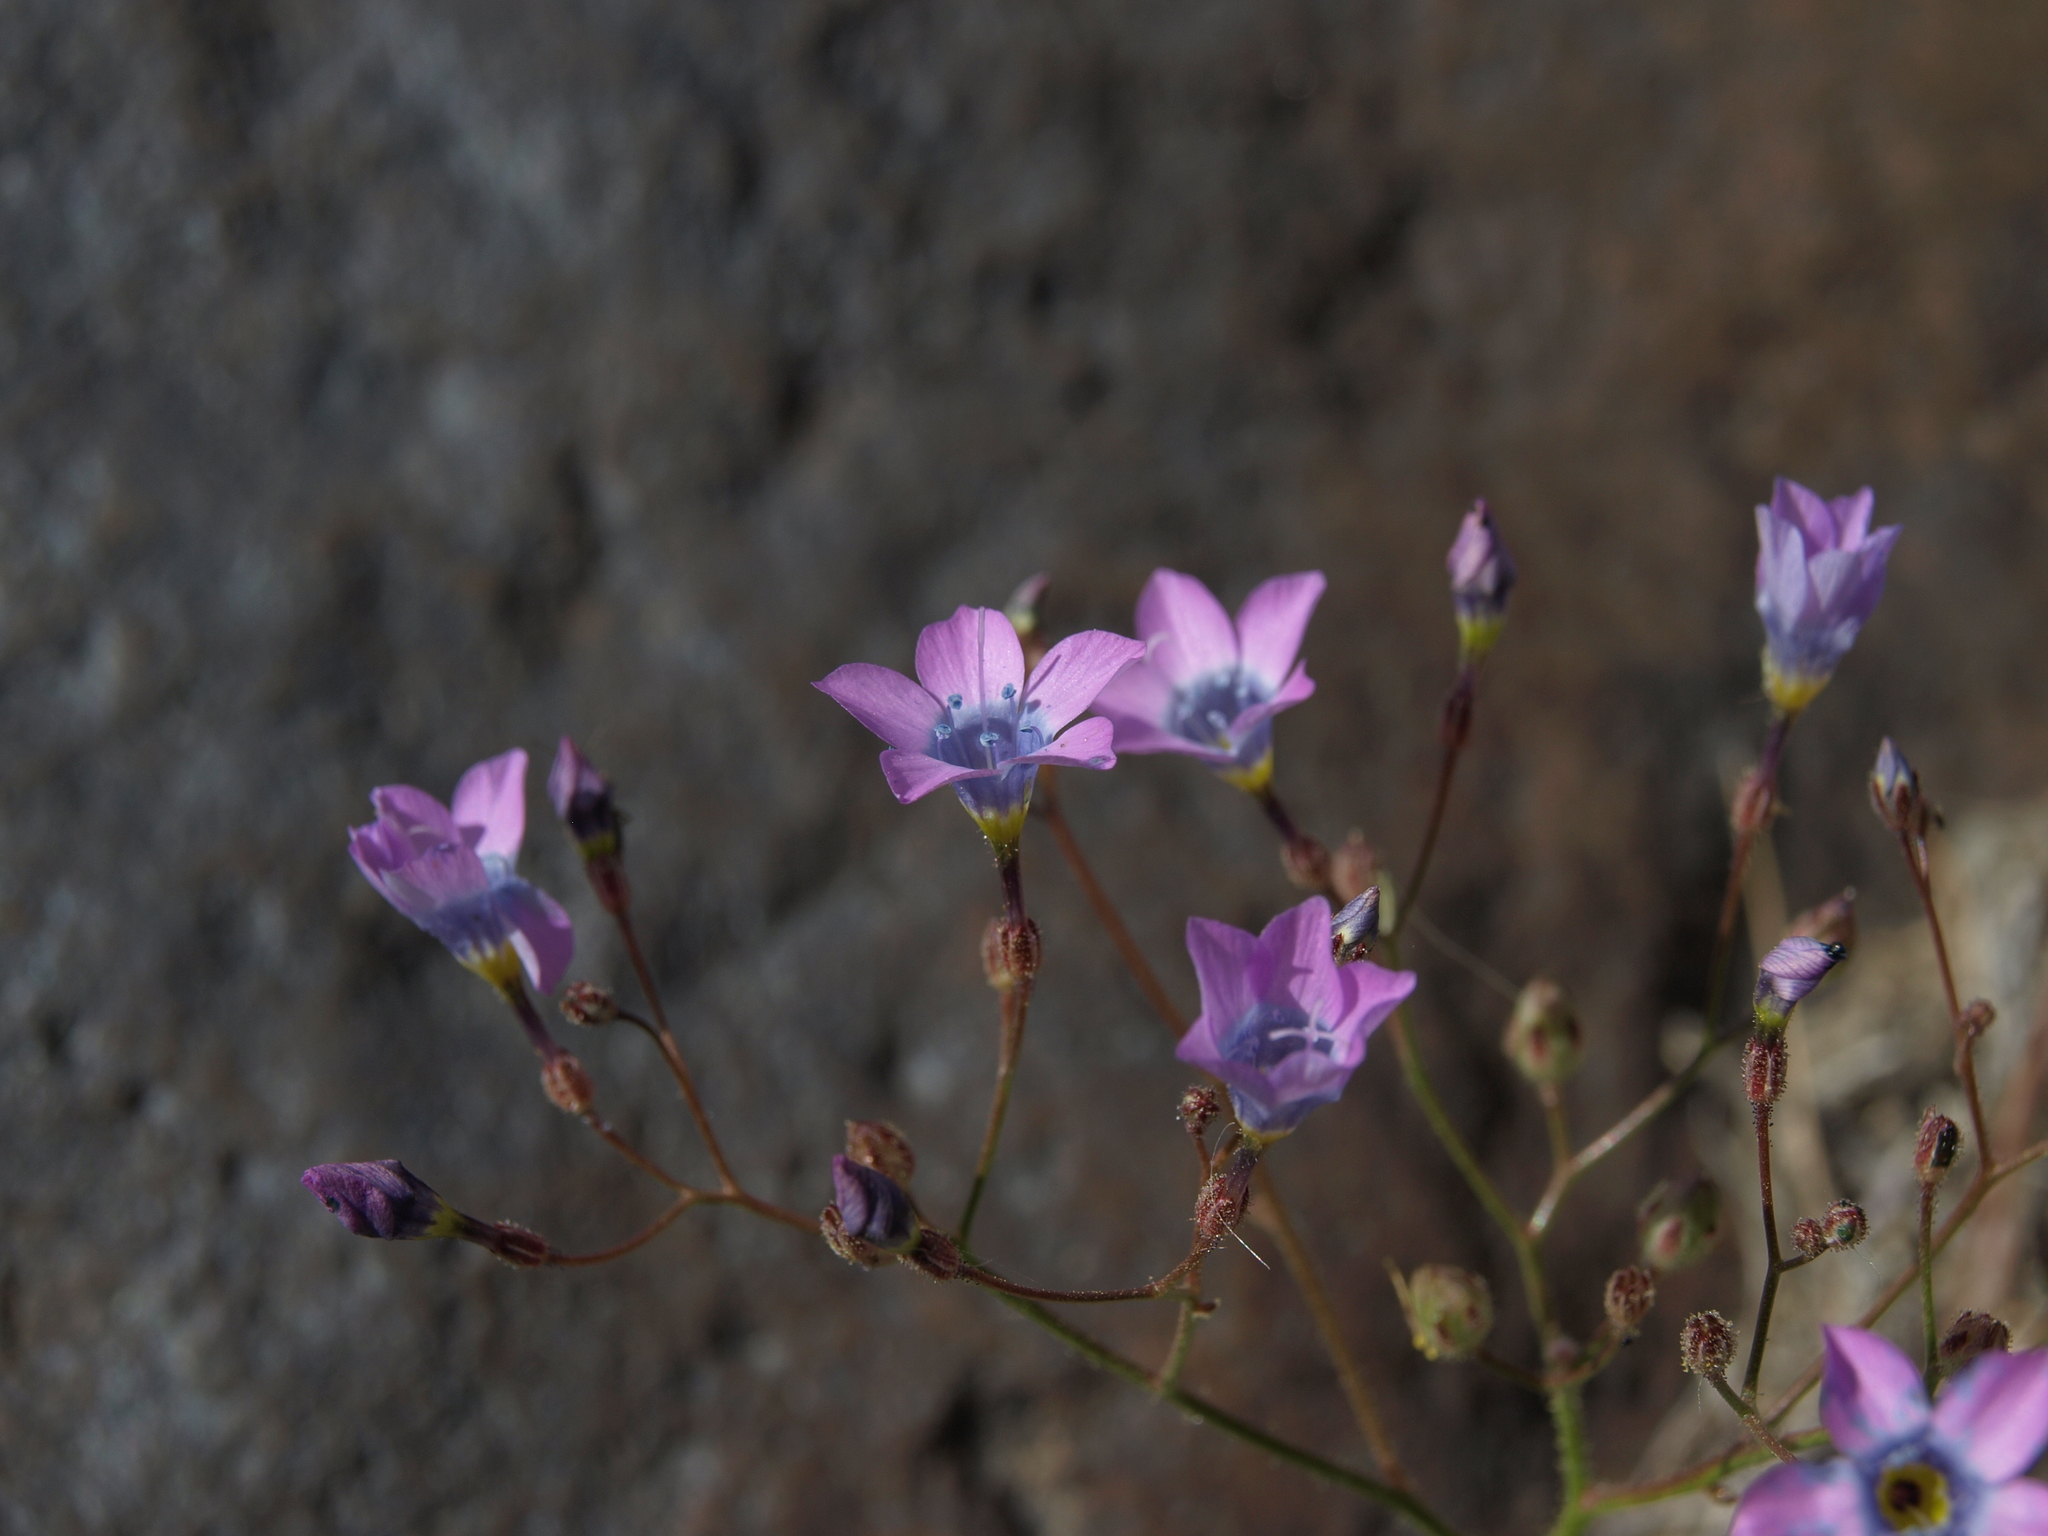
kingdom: Plantae
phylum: Tracheophyta
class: Magnoliopsida
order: Ericales
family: Polemoniaceae
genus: Gilia
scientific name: Gilia cana
